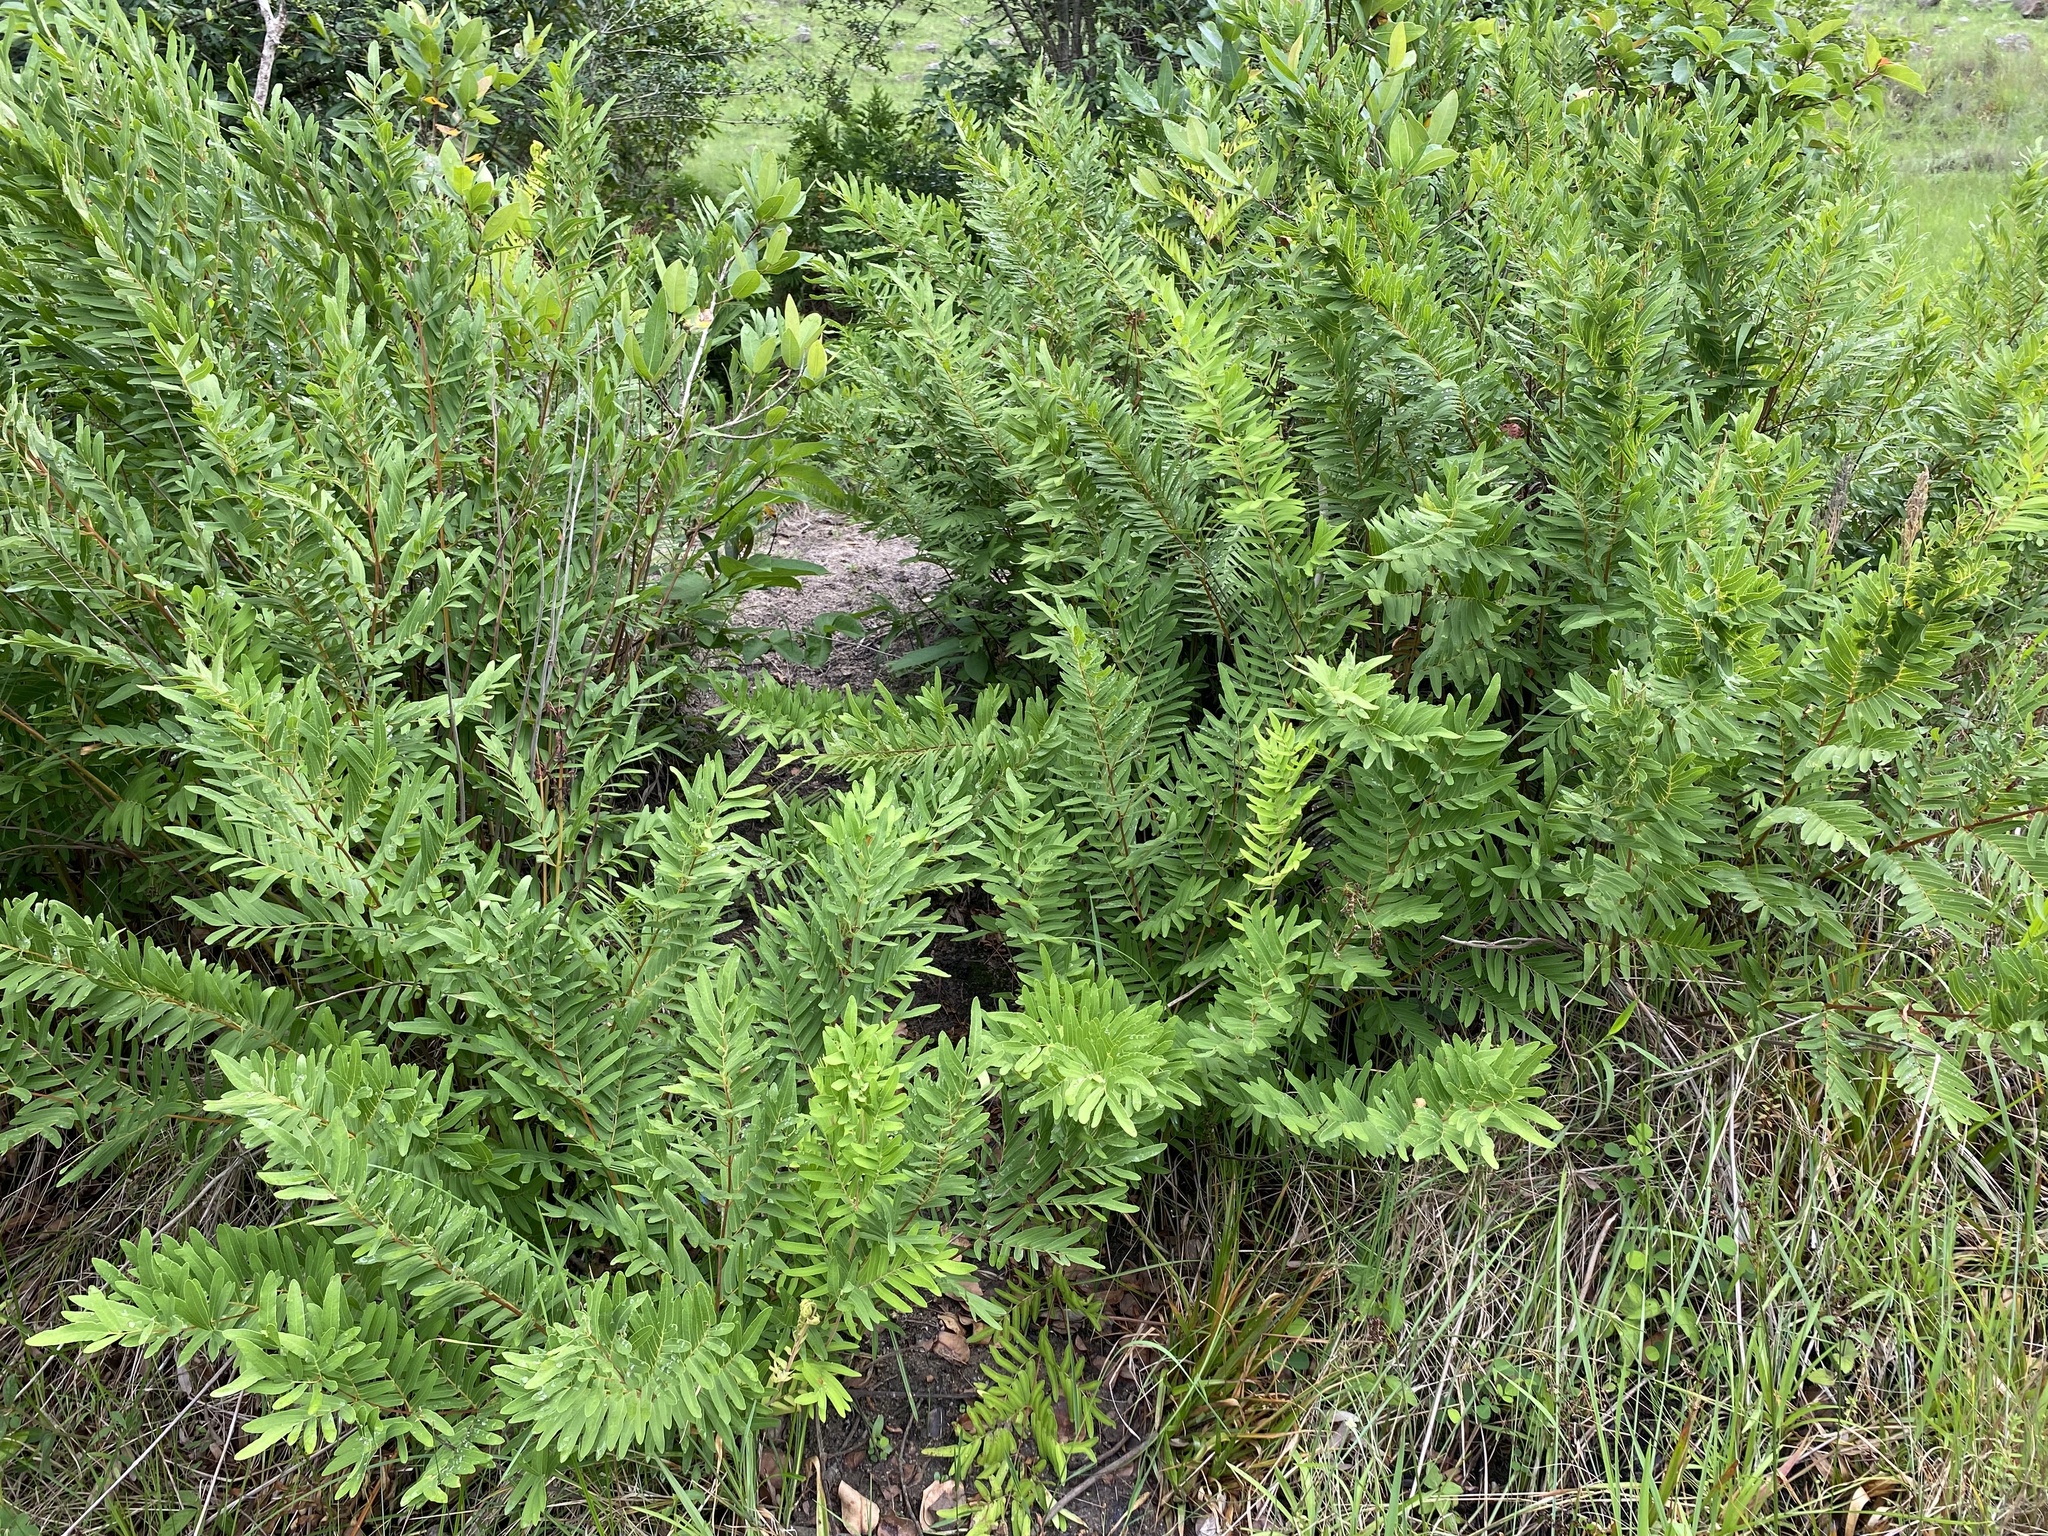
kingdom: Plantae
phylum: Tracheophyta
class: Polypodiopsida
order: Osmundales
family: Osmundaceae
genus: Osmunda
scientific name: Osmunda acuta
